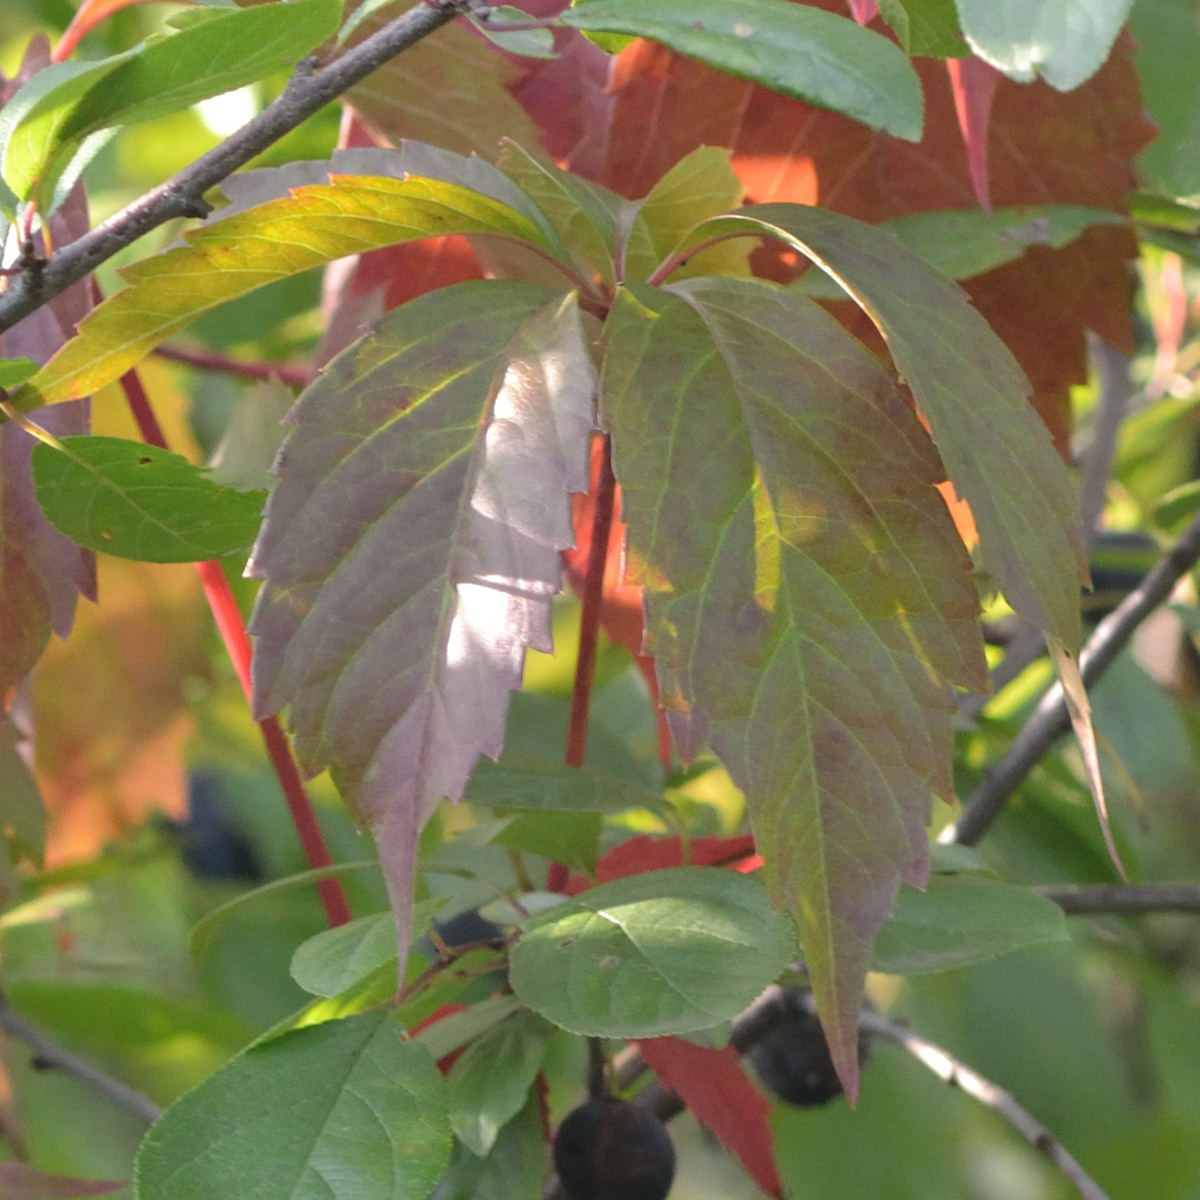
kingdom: Plantae
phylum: Tracheophyta
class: Magnoliopsida
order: Vitales
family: Vitaceae
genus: Parthenocissus
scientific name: Parthenocissus inserta
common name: False virginia-creeper
